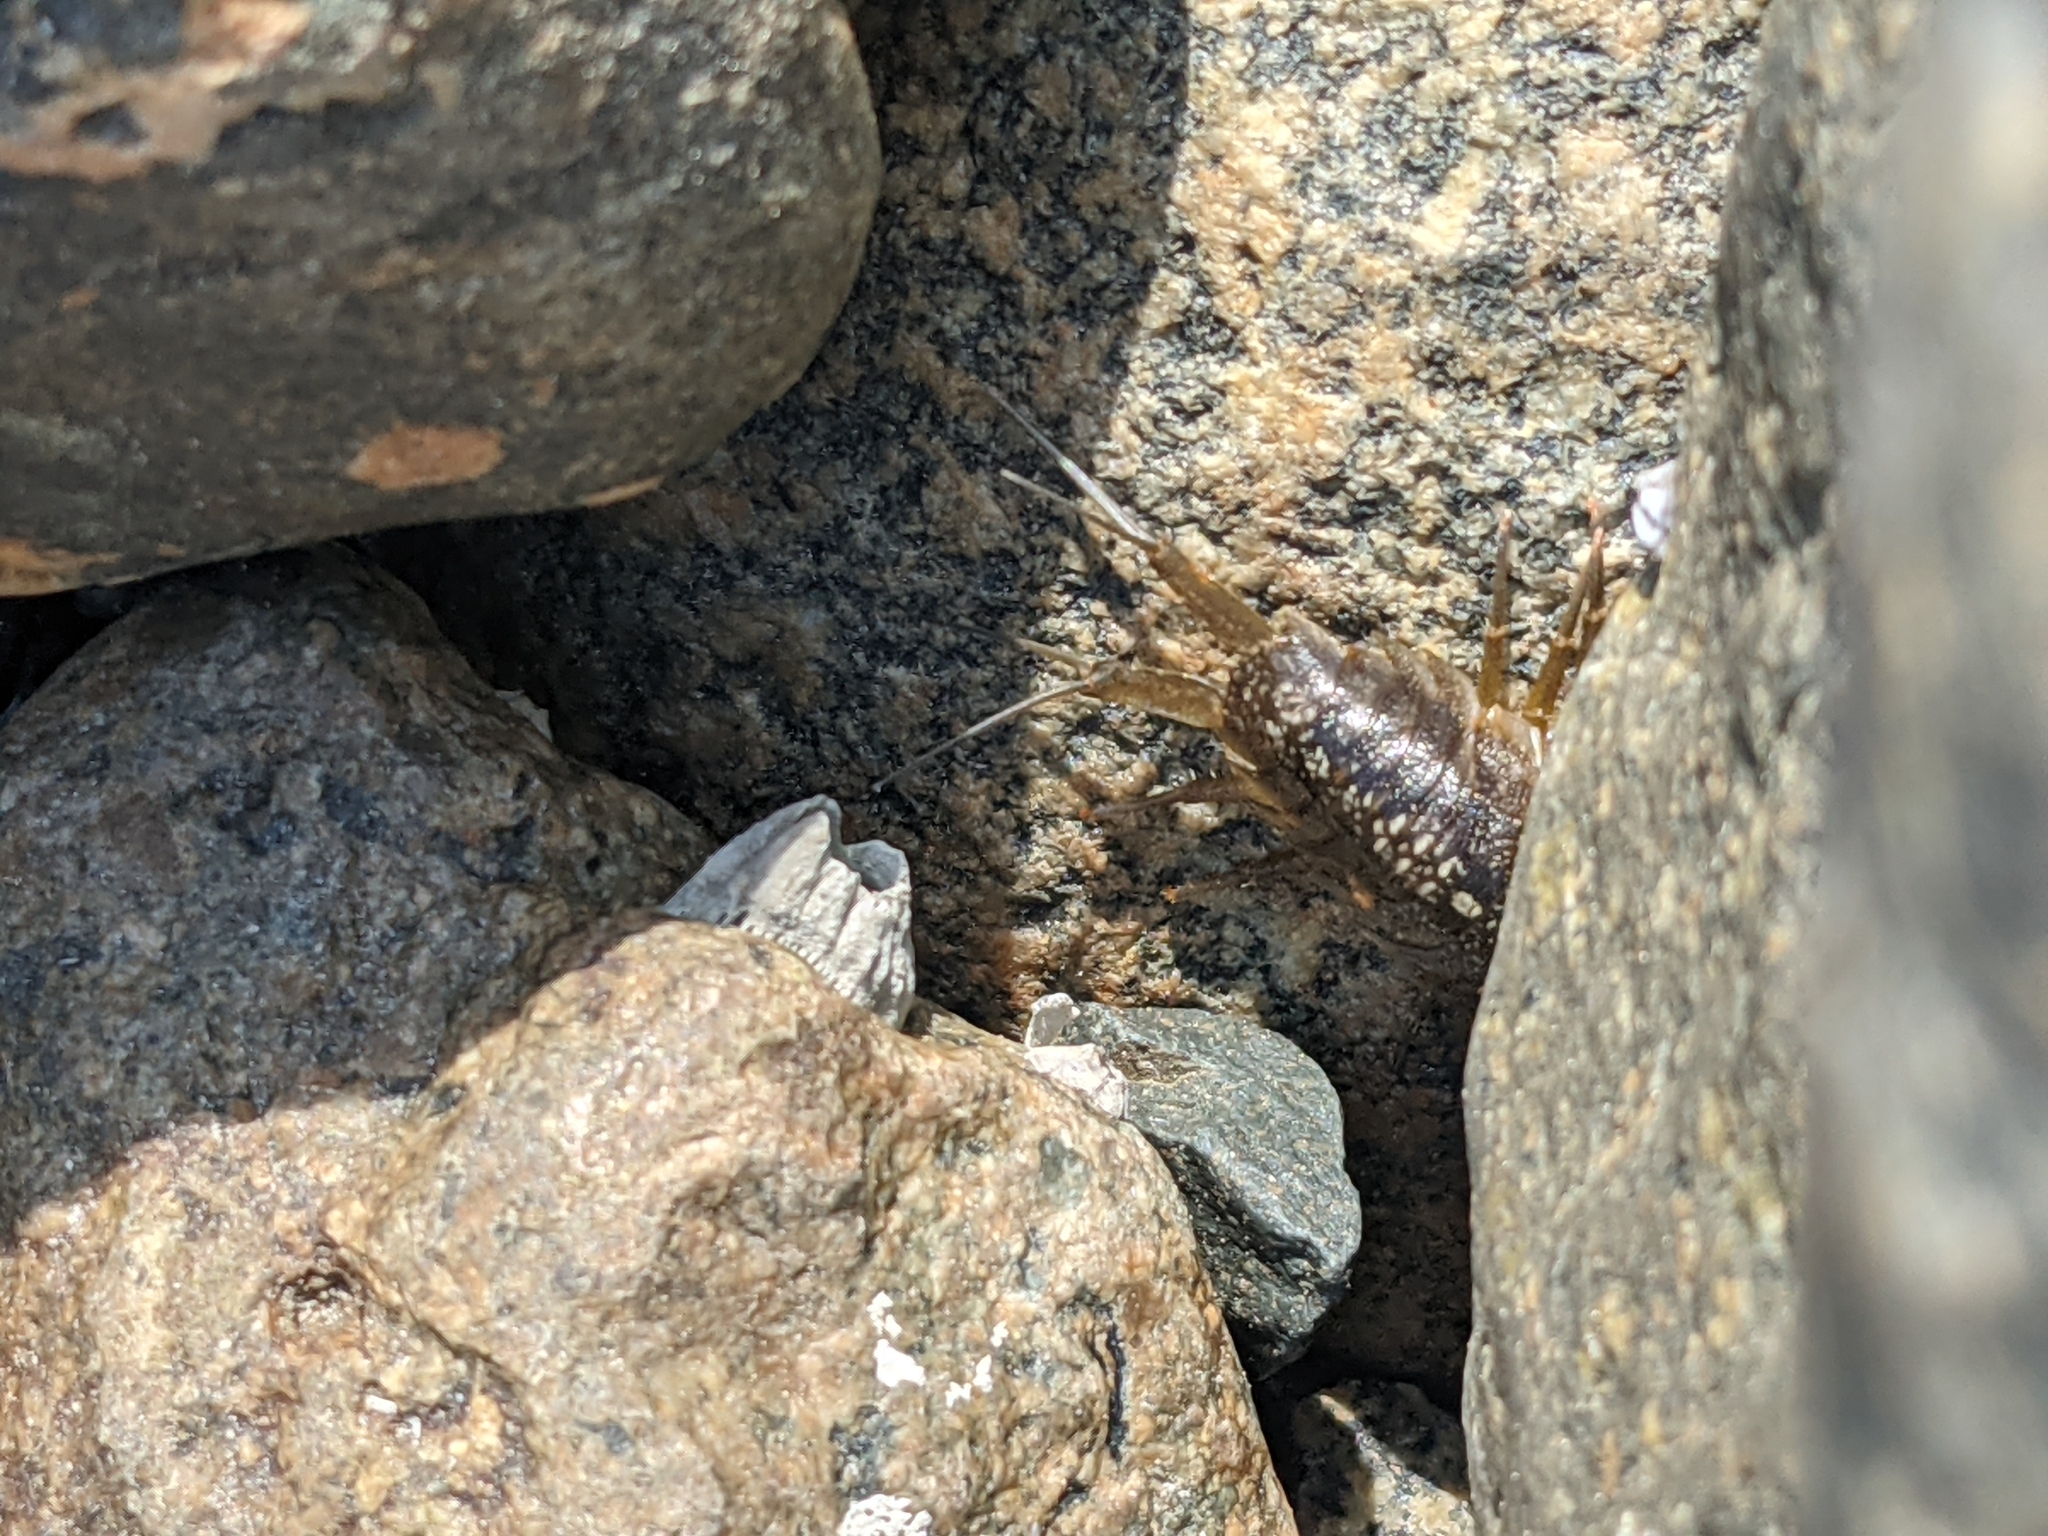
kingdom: Animalia
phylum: Arthropoda
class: Malacostraca
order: Isopoda
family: Ligiidae
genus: Ligia
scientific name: Ligia occidentalis
